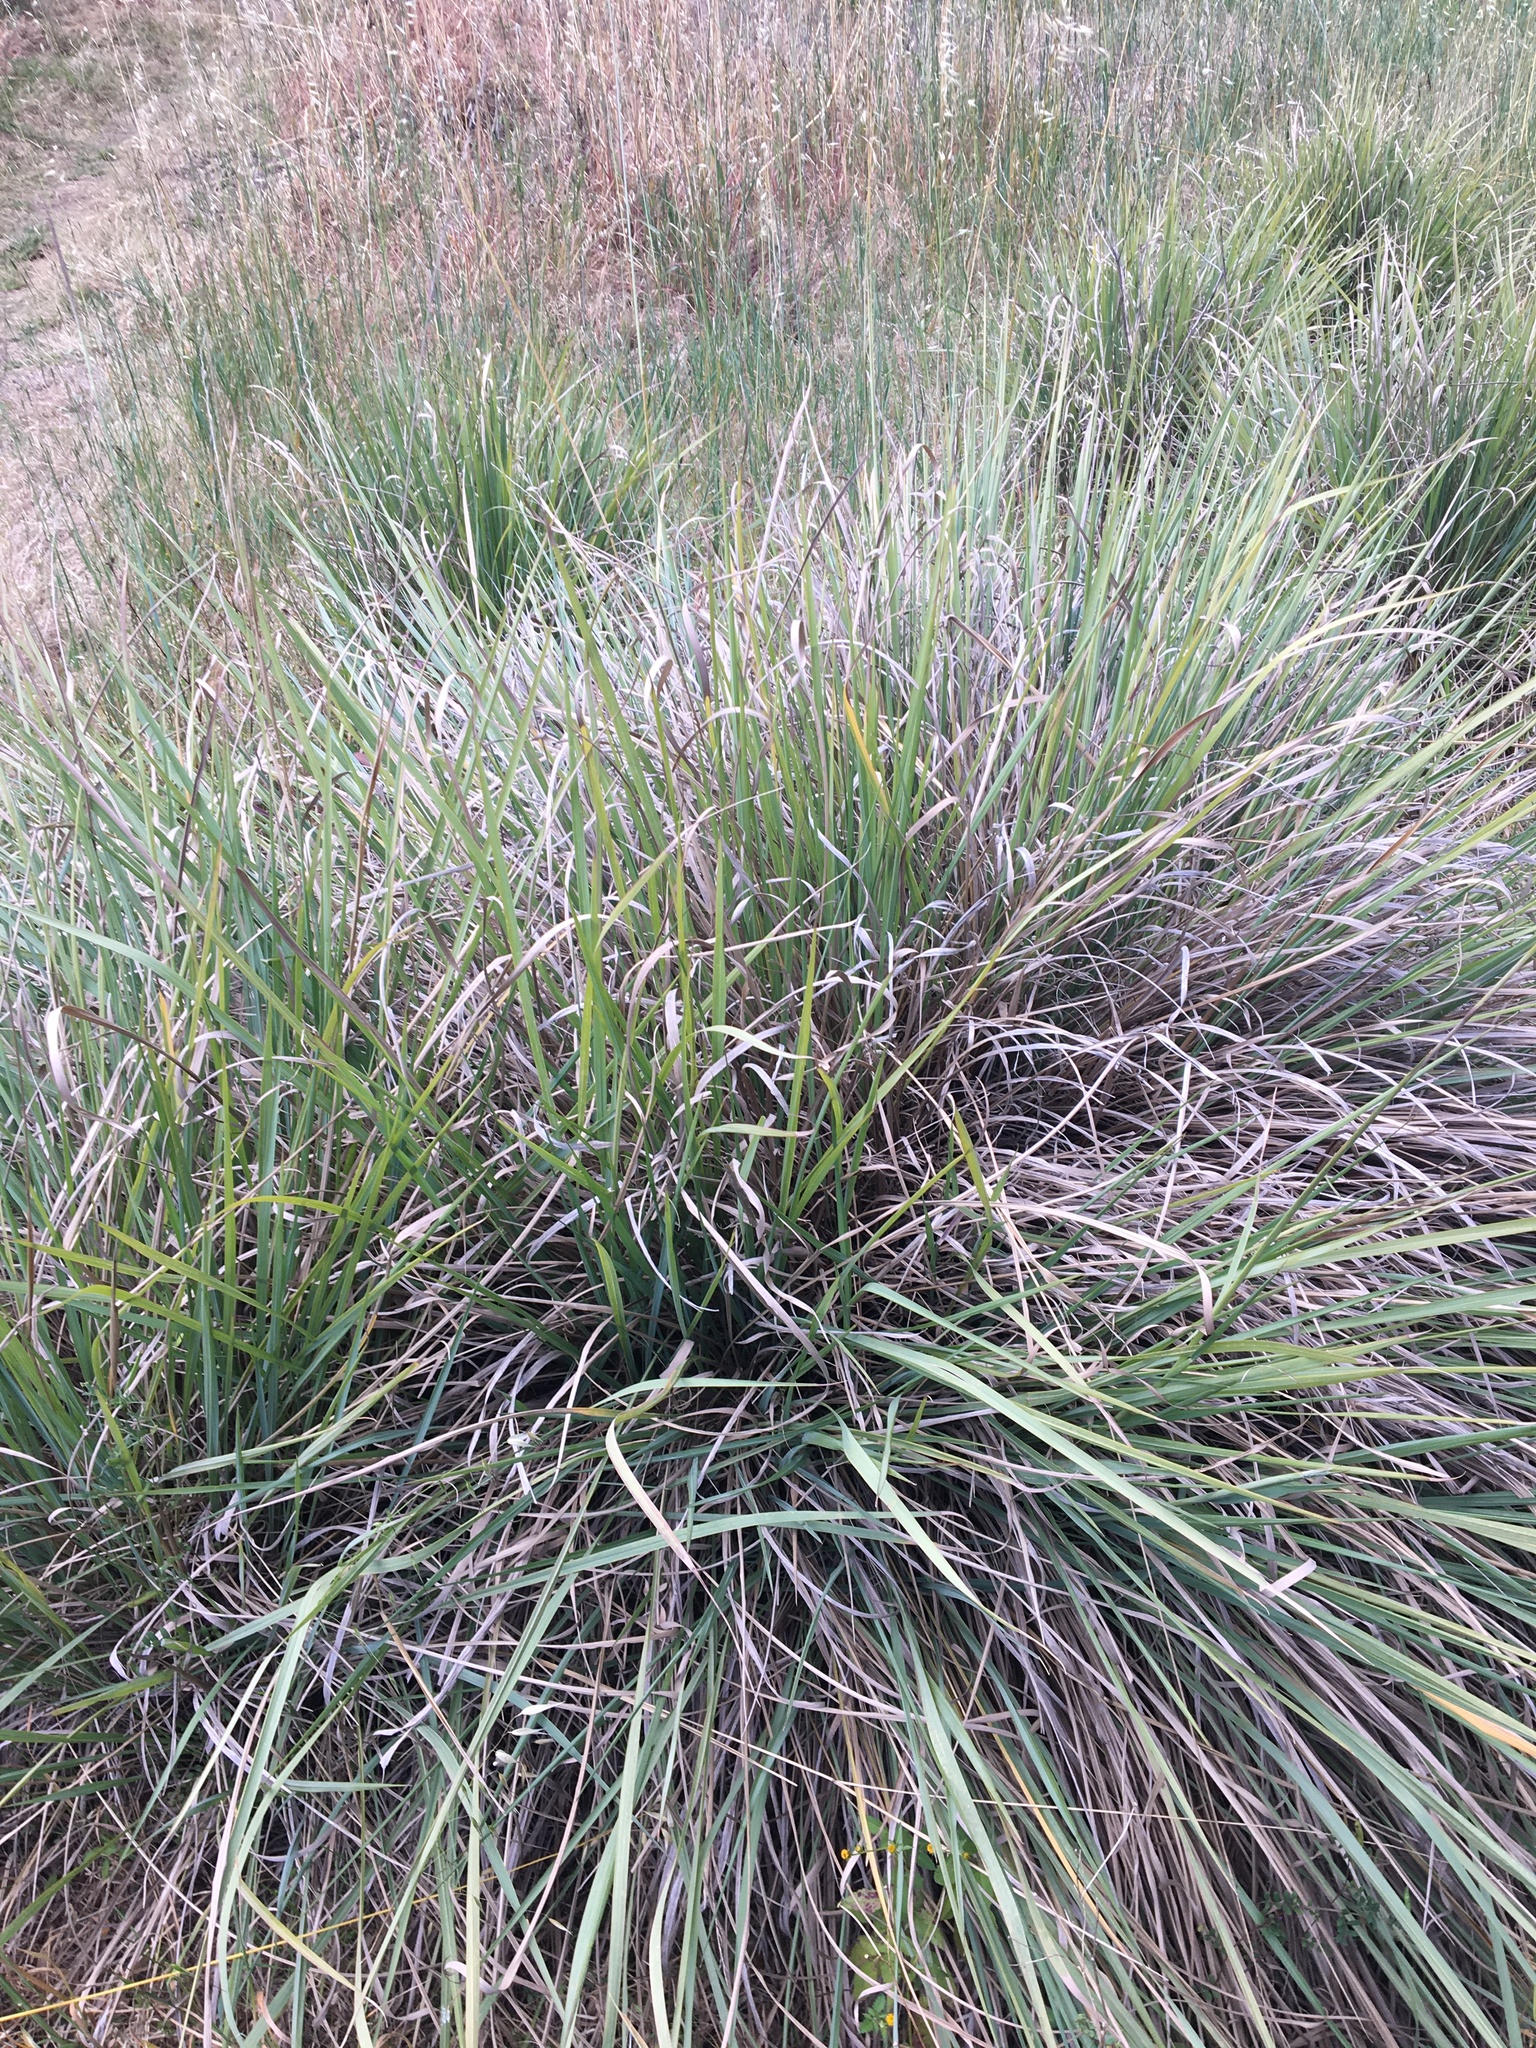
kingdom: Plantae
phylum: Tracheophyta
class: Liliopsida
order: Poales
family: Poaceae
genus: Paspalum
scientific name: Paspalum quadrifarium
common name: Tussock paspalum
